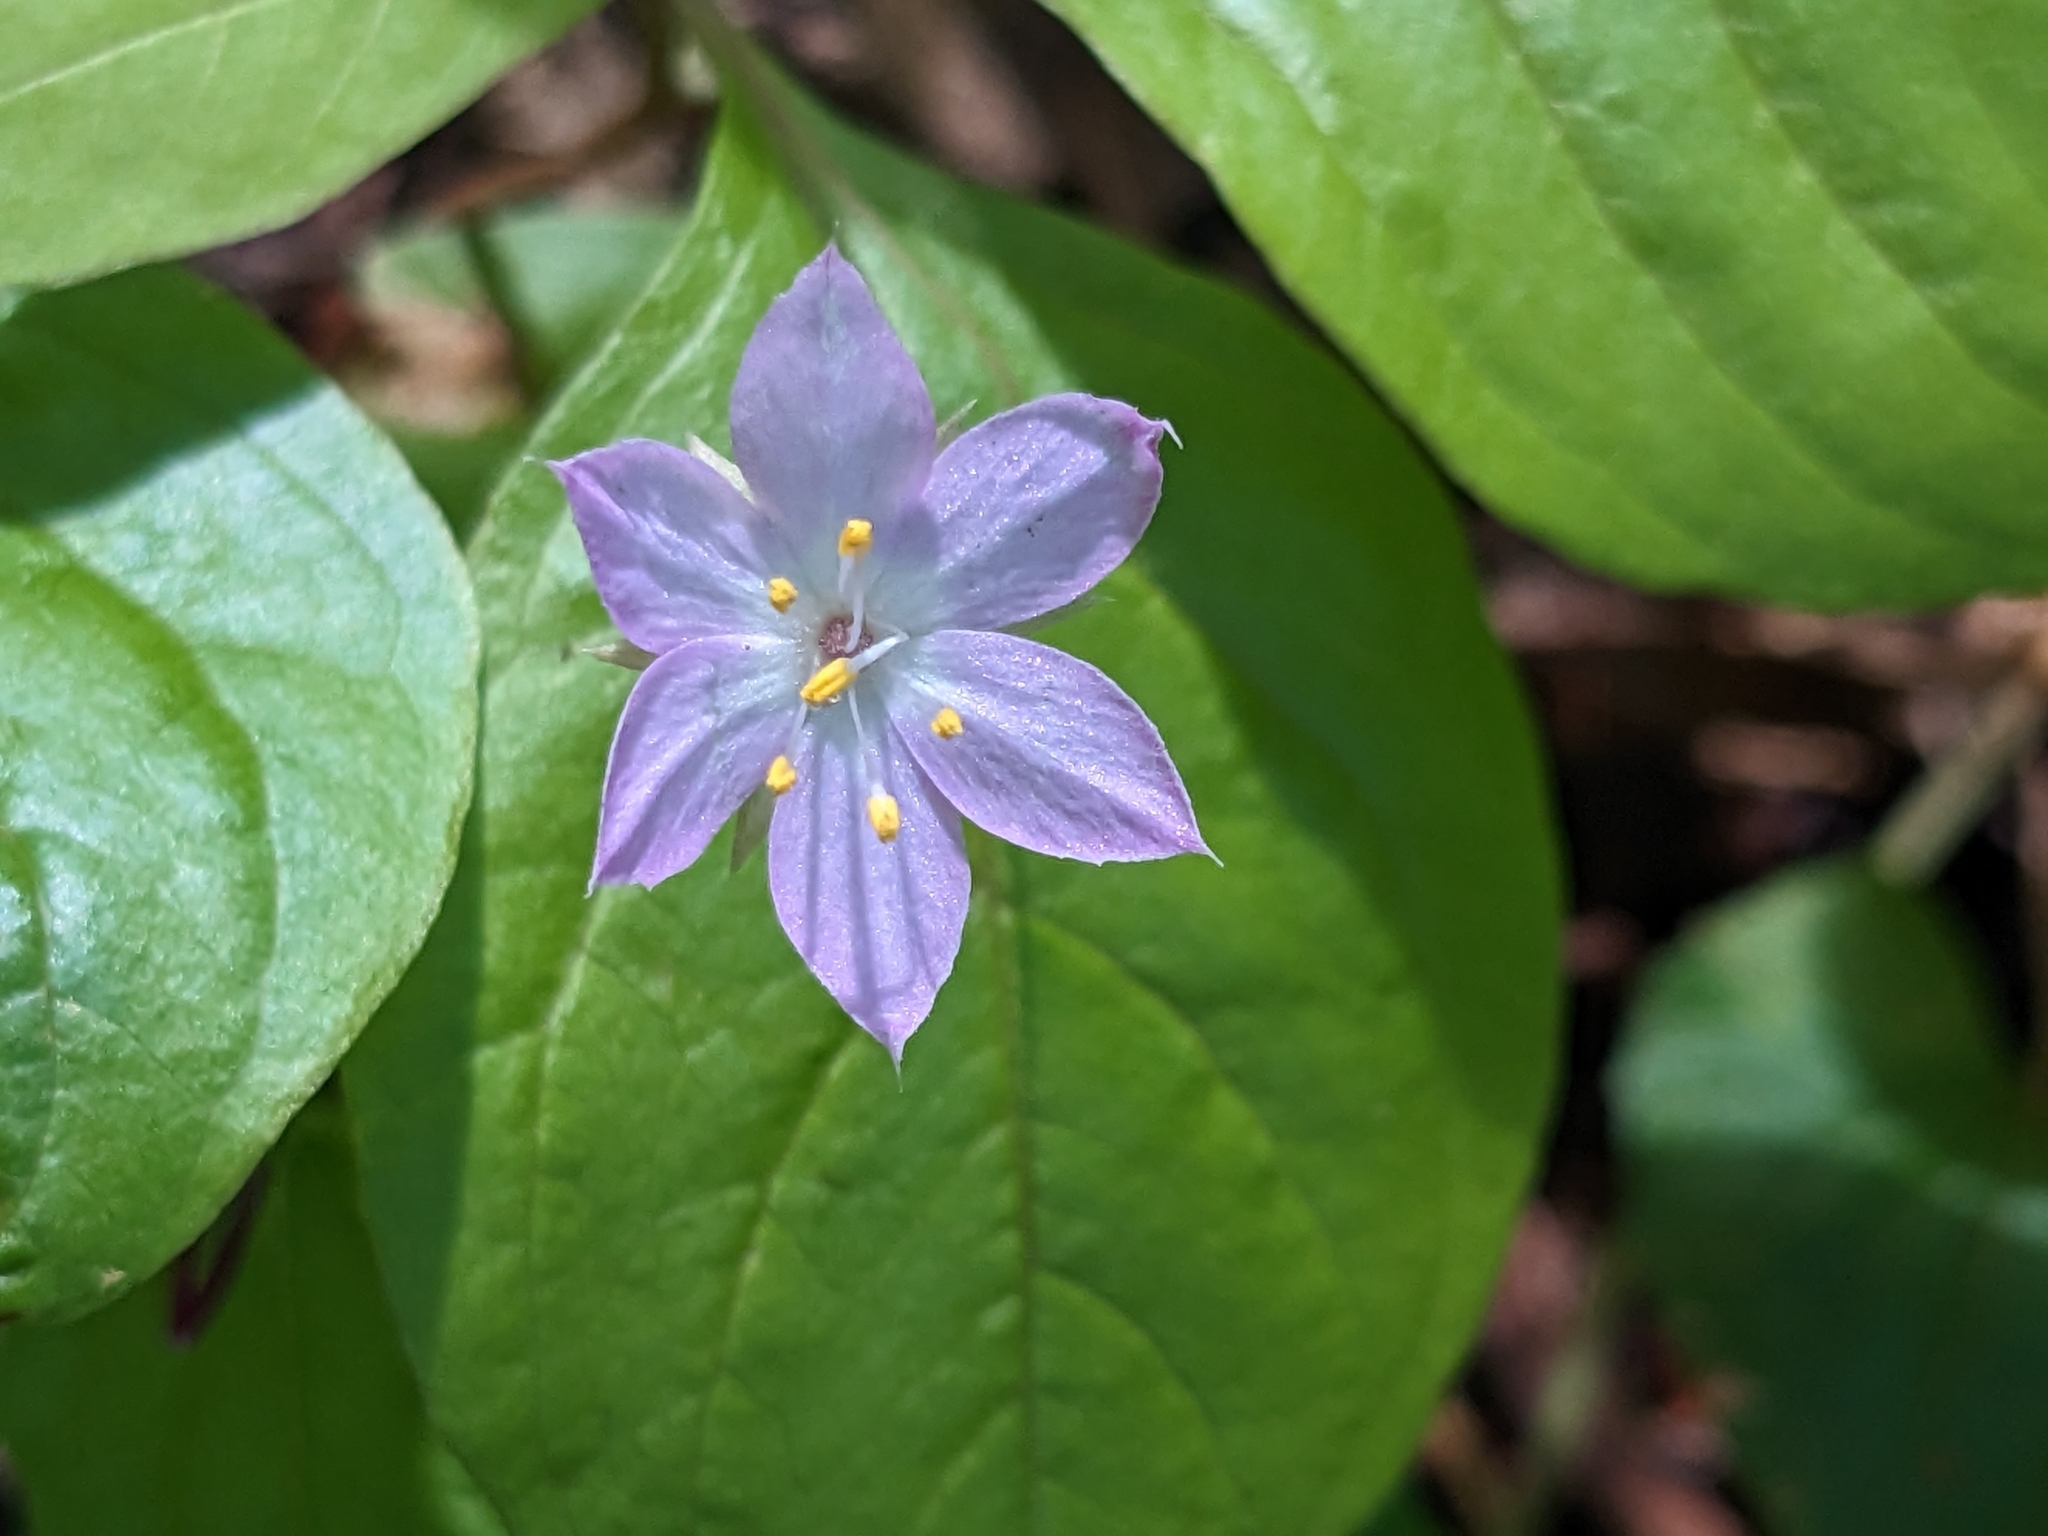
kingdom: Plantae
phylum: Tracheophyta
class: Magnoliopsida
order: Ericales
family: Primulaceae
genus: Lysimachia
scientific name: Lysimachia latifolia
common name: Pacific starflower
